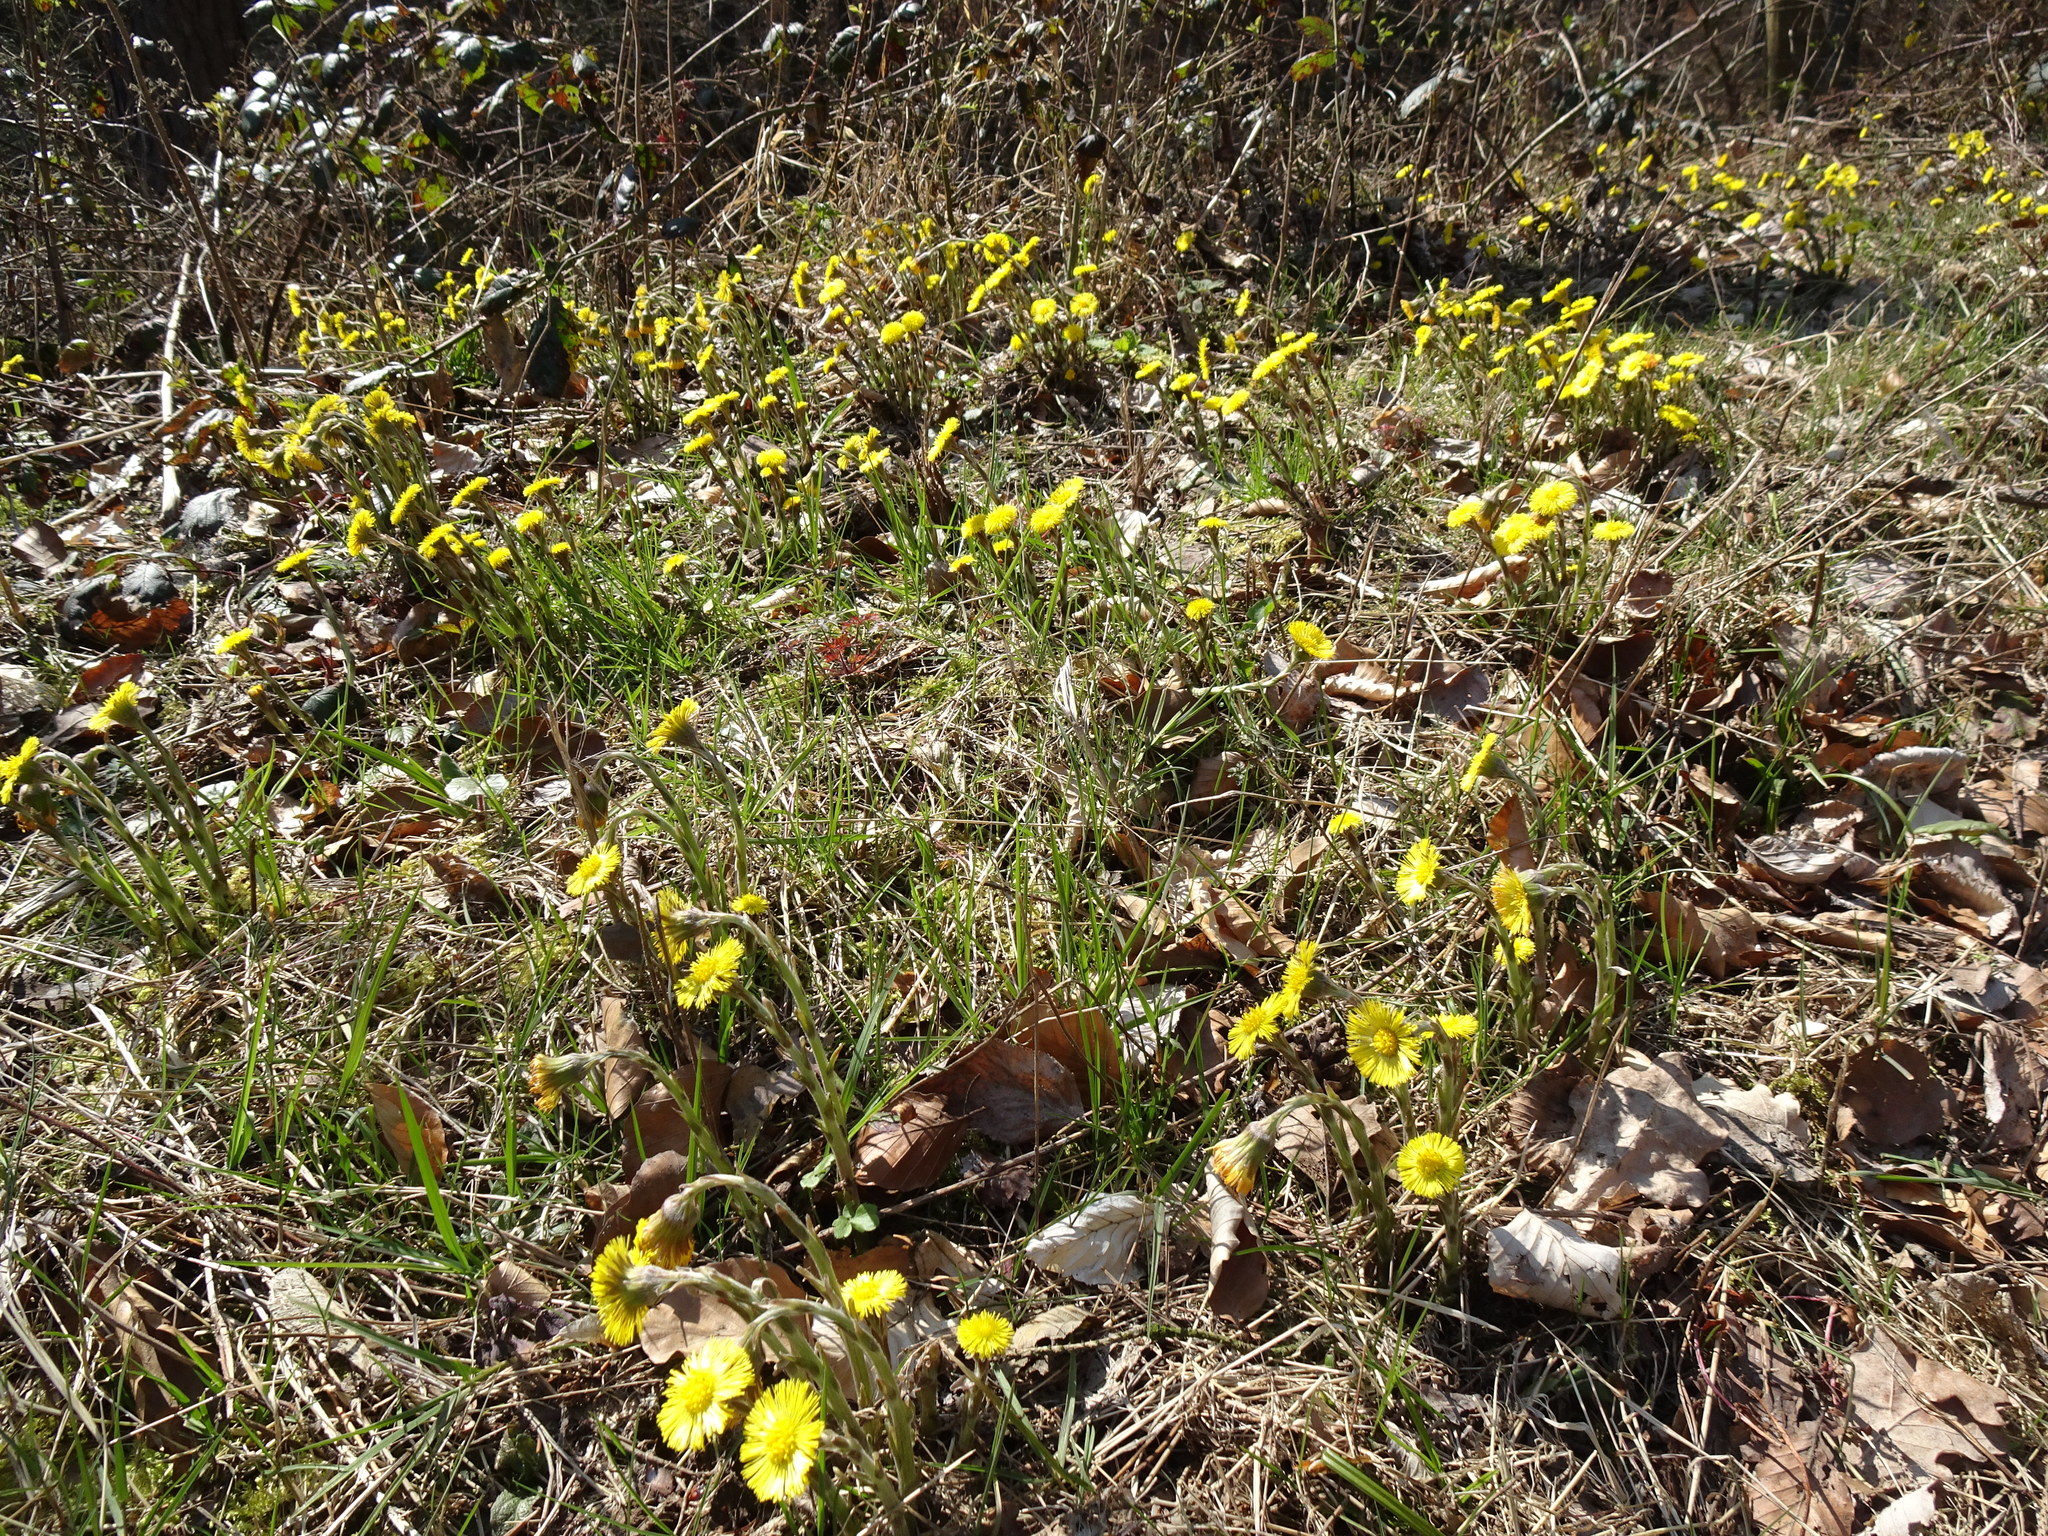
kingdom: Plantae
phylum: Tracheophyta
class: Magnoliopsida
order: Asterales
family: Asteraceae
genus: Tussilago
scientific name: Tussilago farfara
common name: Coltsfoot
